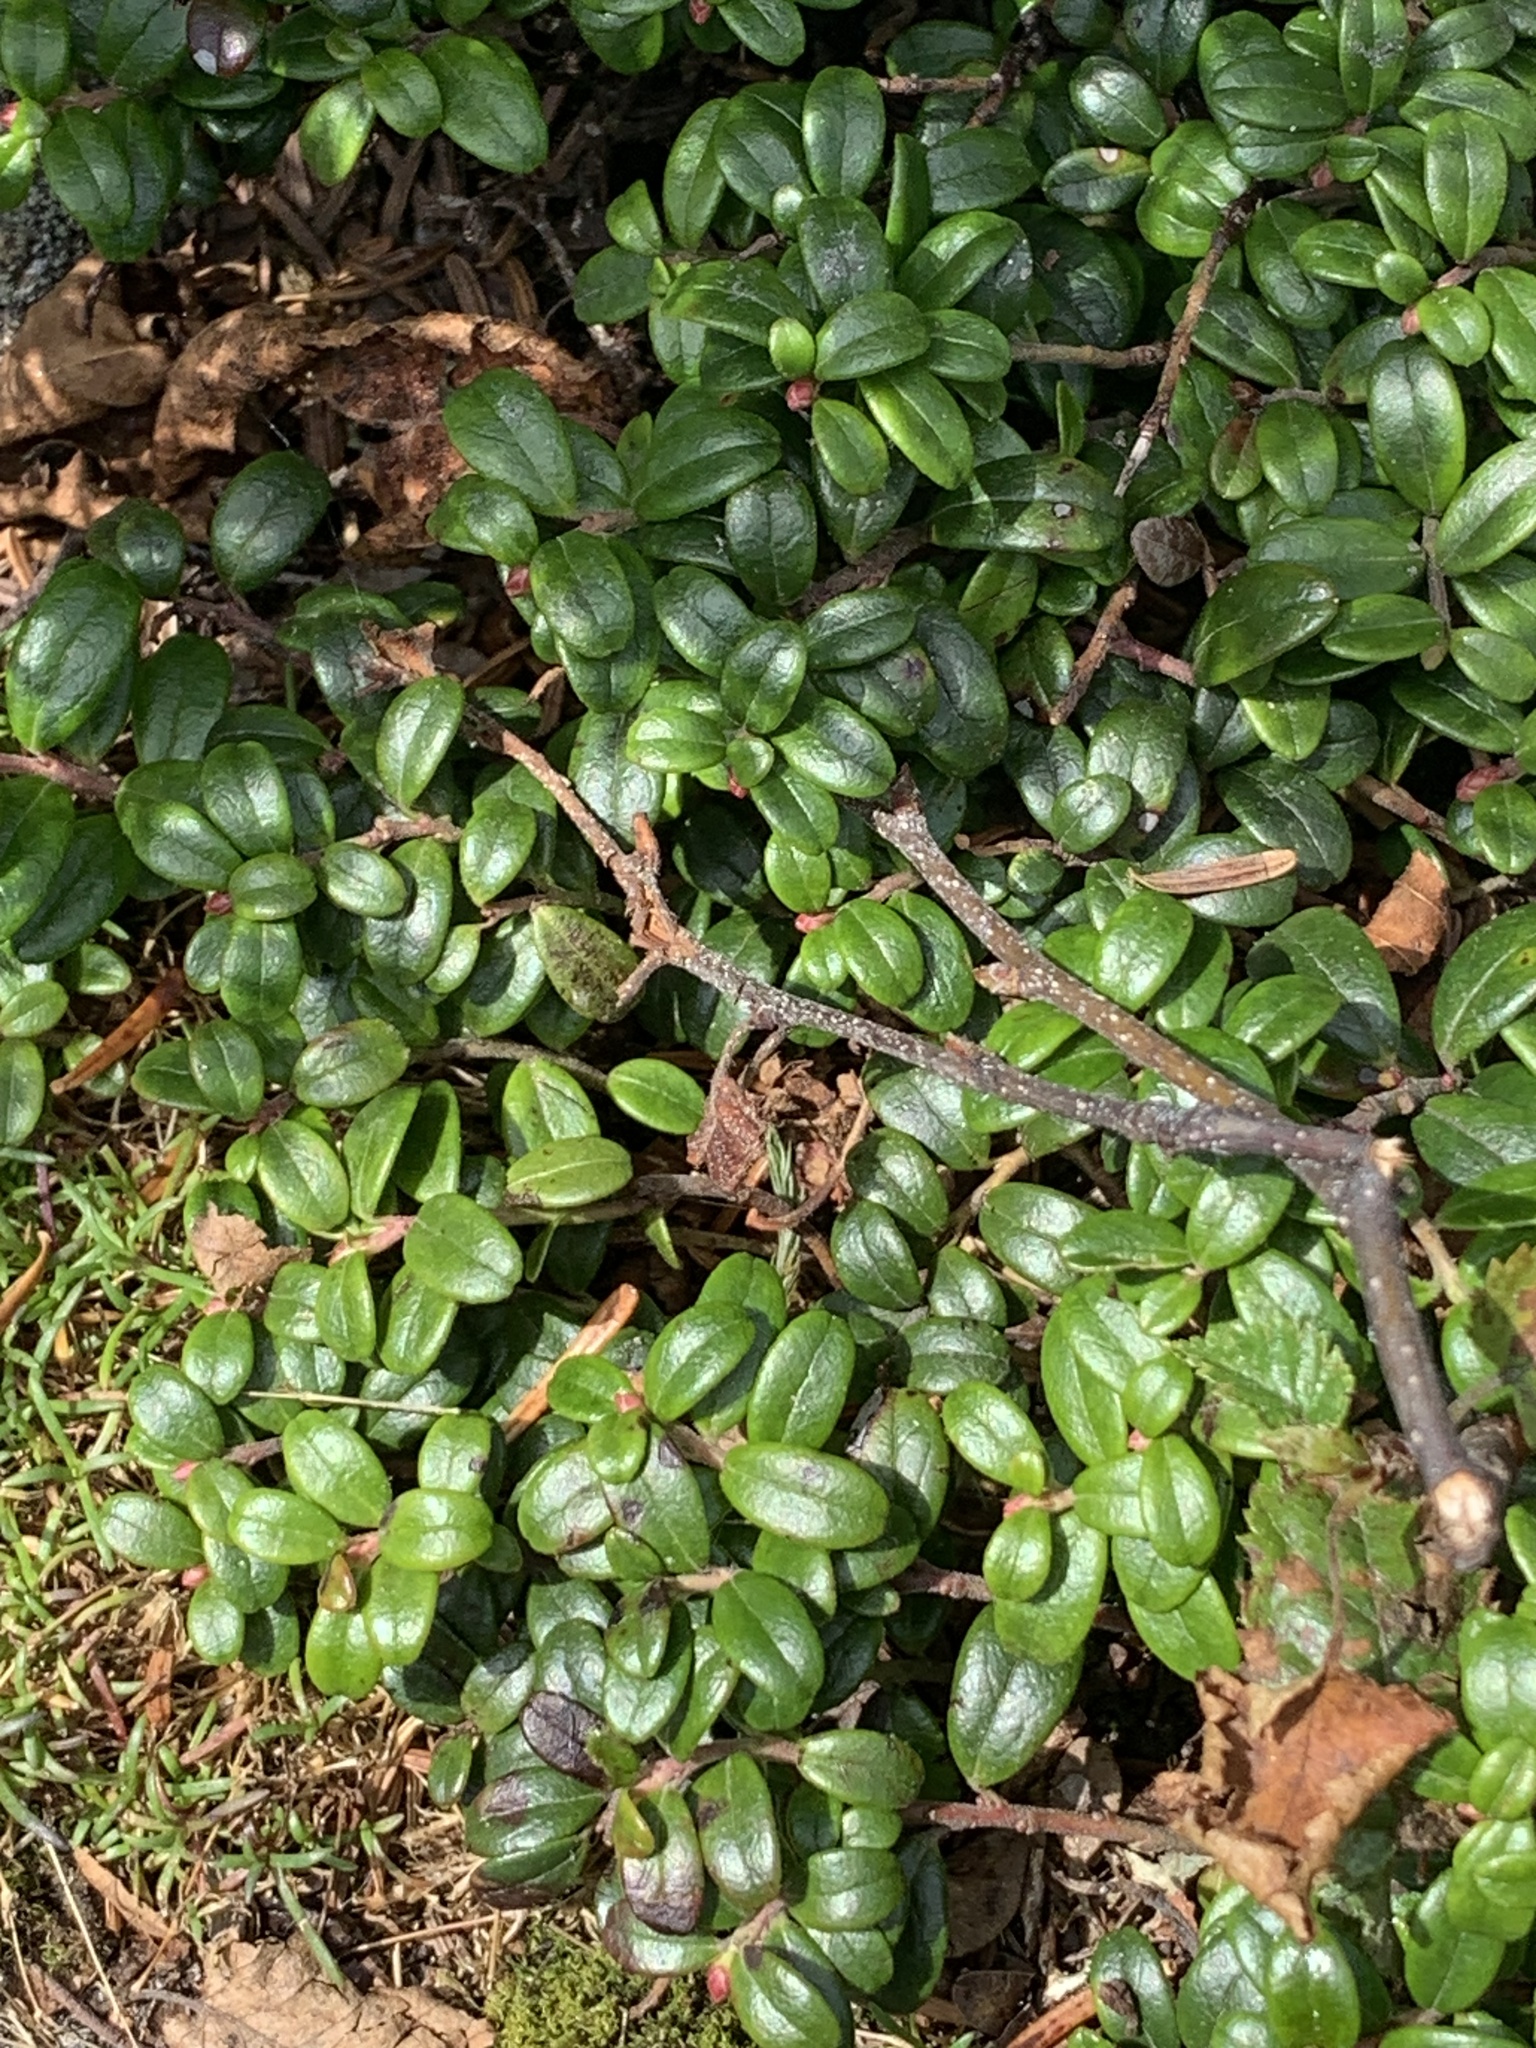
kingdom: Plantae
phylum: Tracheophyta
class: Magnoliopsida
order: Ericales
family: Ericaceae
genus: Vaccinium
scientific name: Vaccinium vitis-idaea
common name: Cowberry
